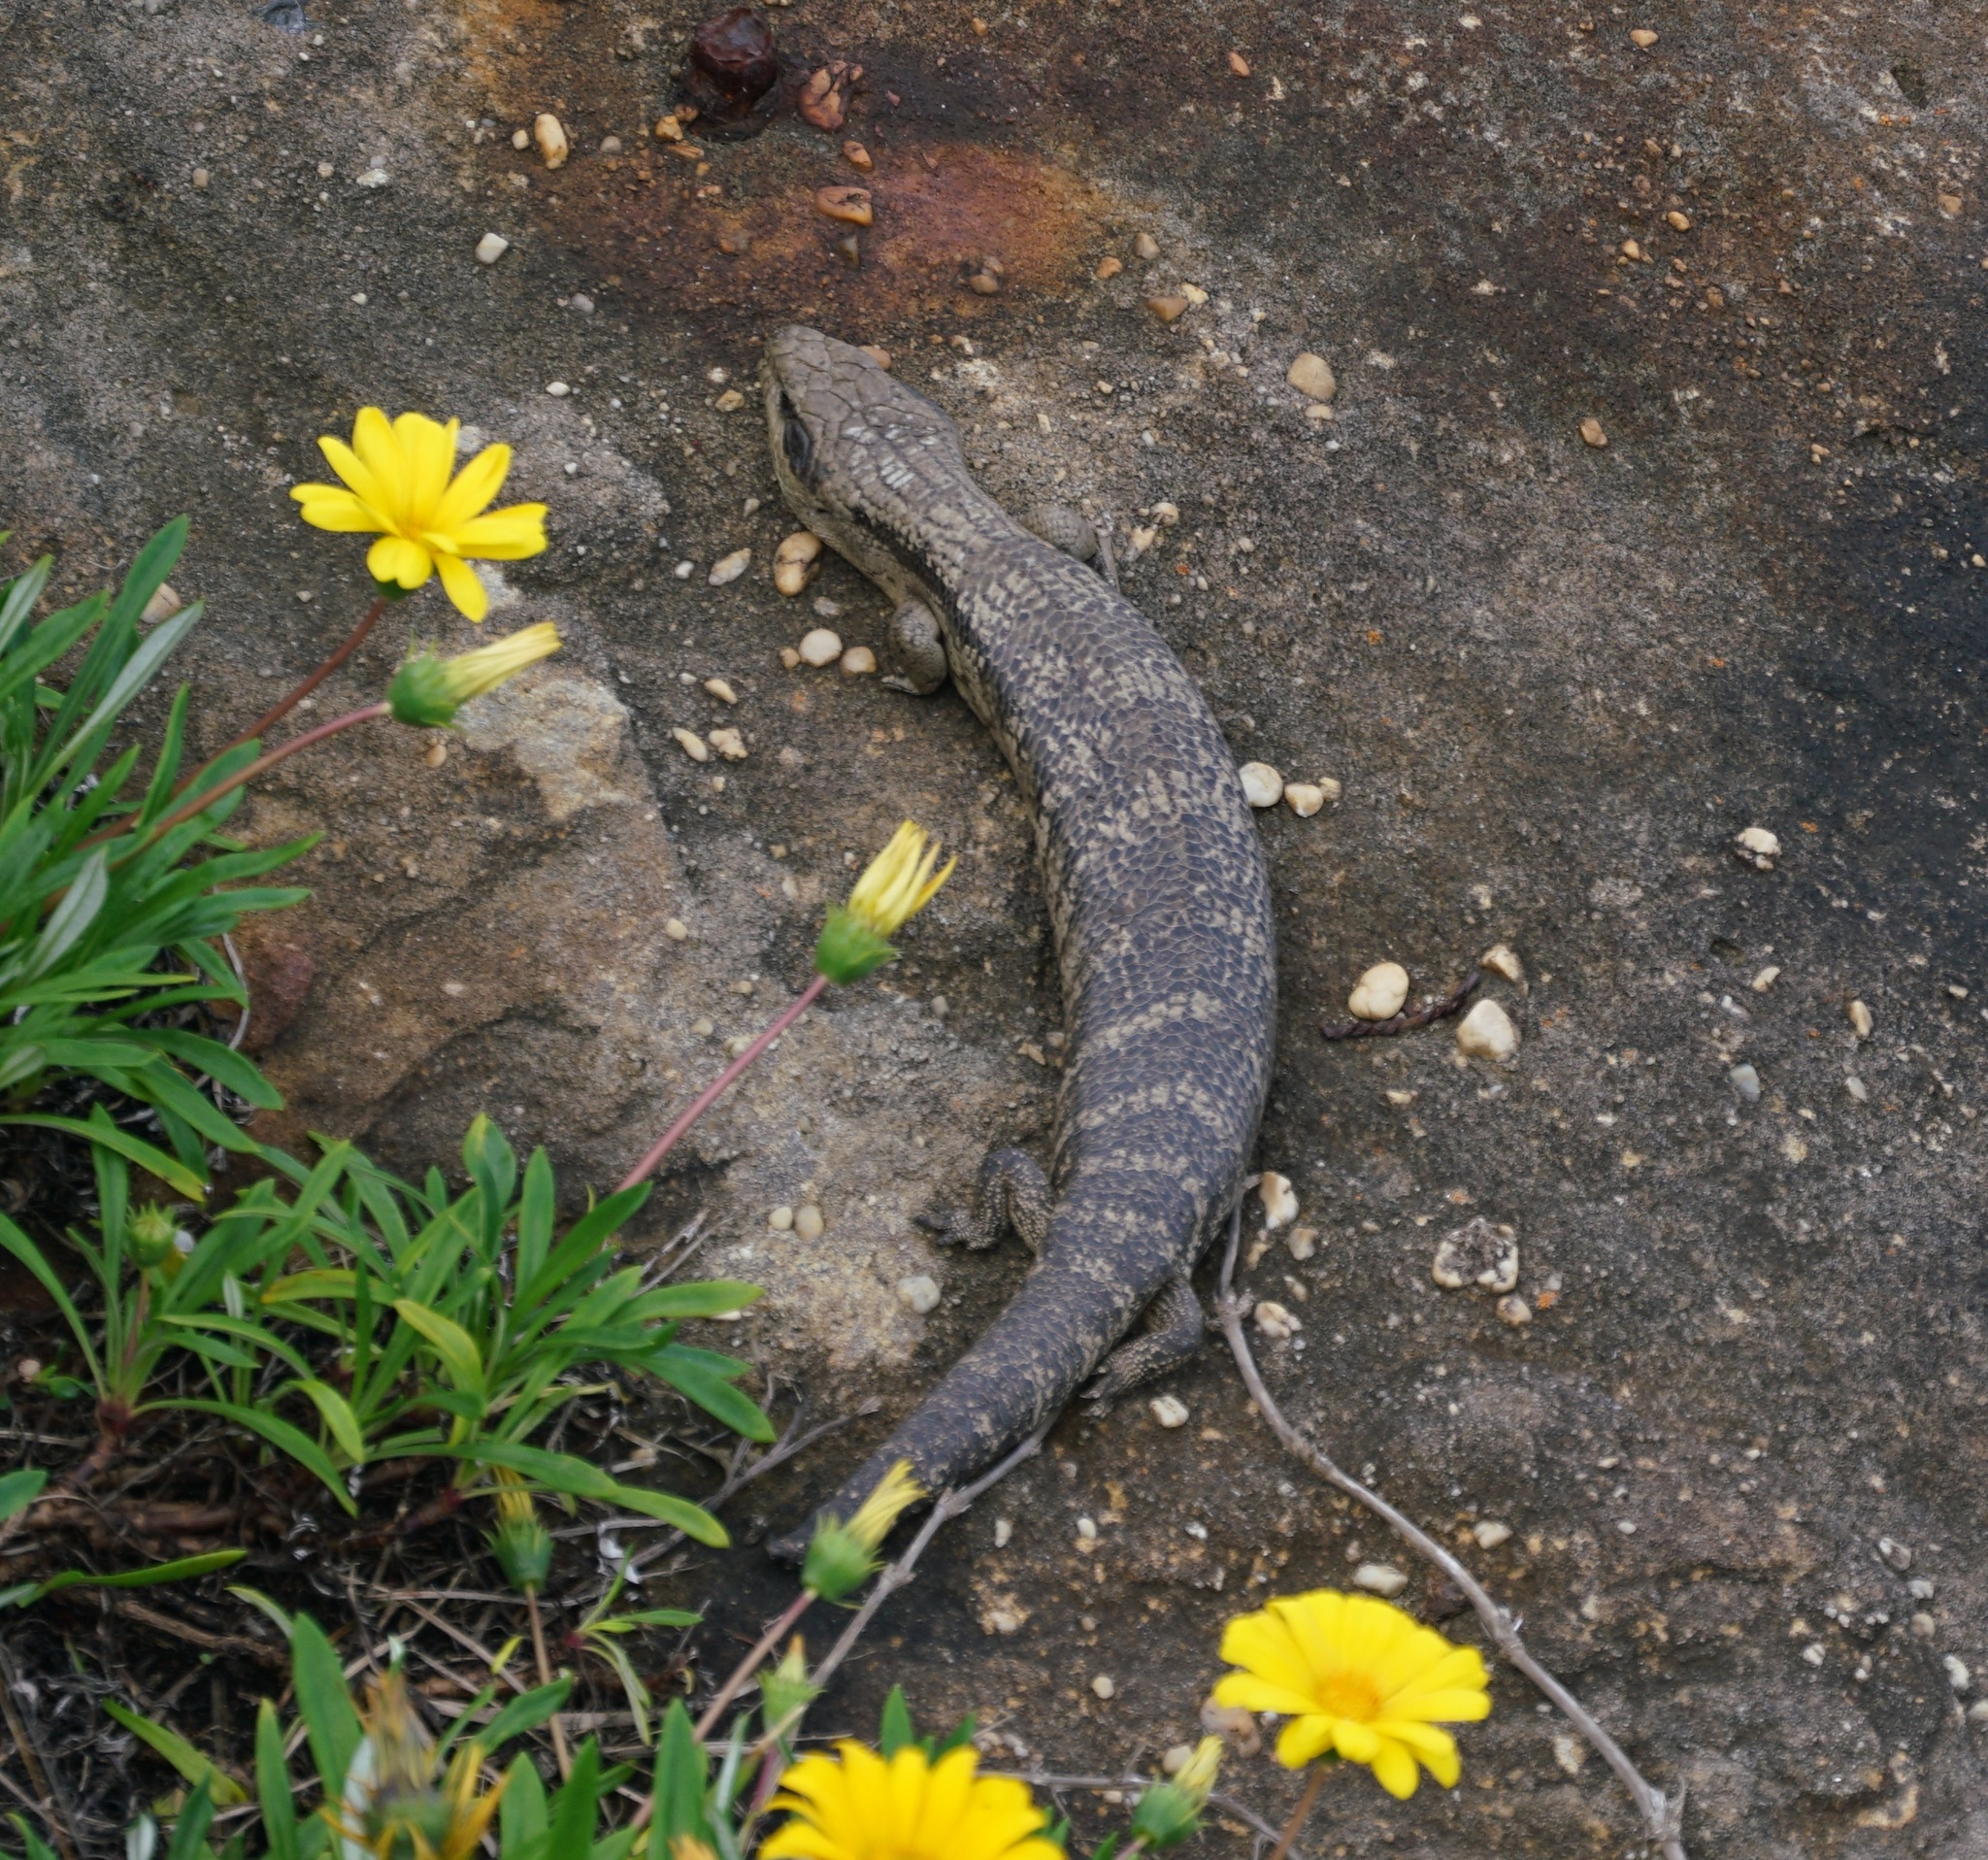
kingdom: Animalia
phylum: Chordata
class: Squamata
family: Scincidae
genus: Tiliqua
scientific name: Tiliqua scincoides
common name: Common bluetongue
